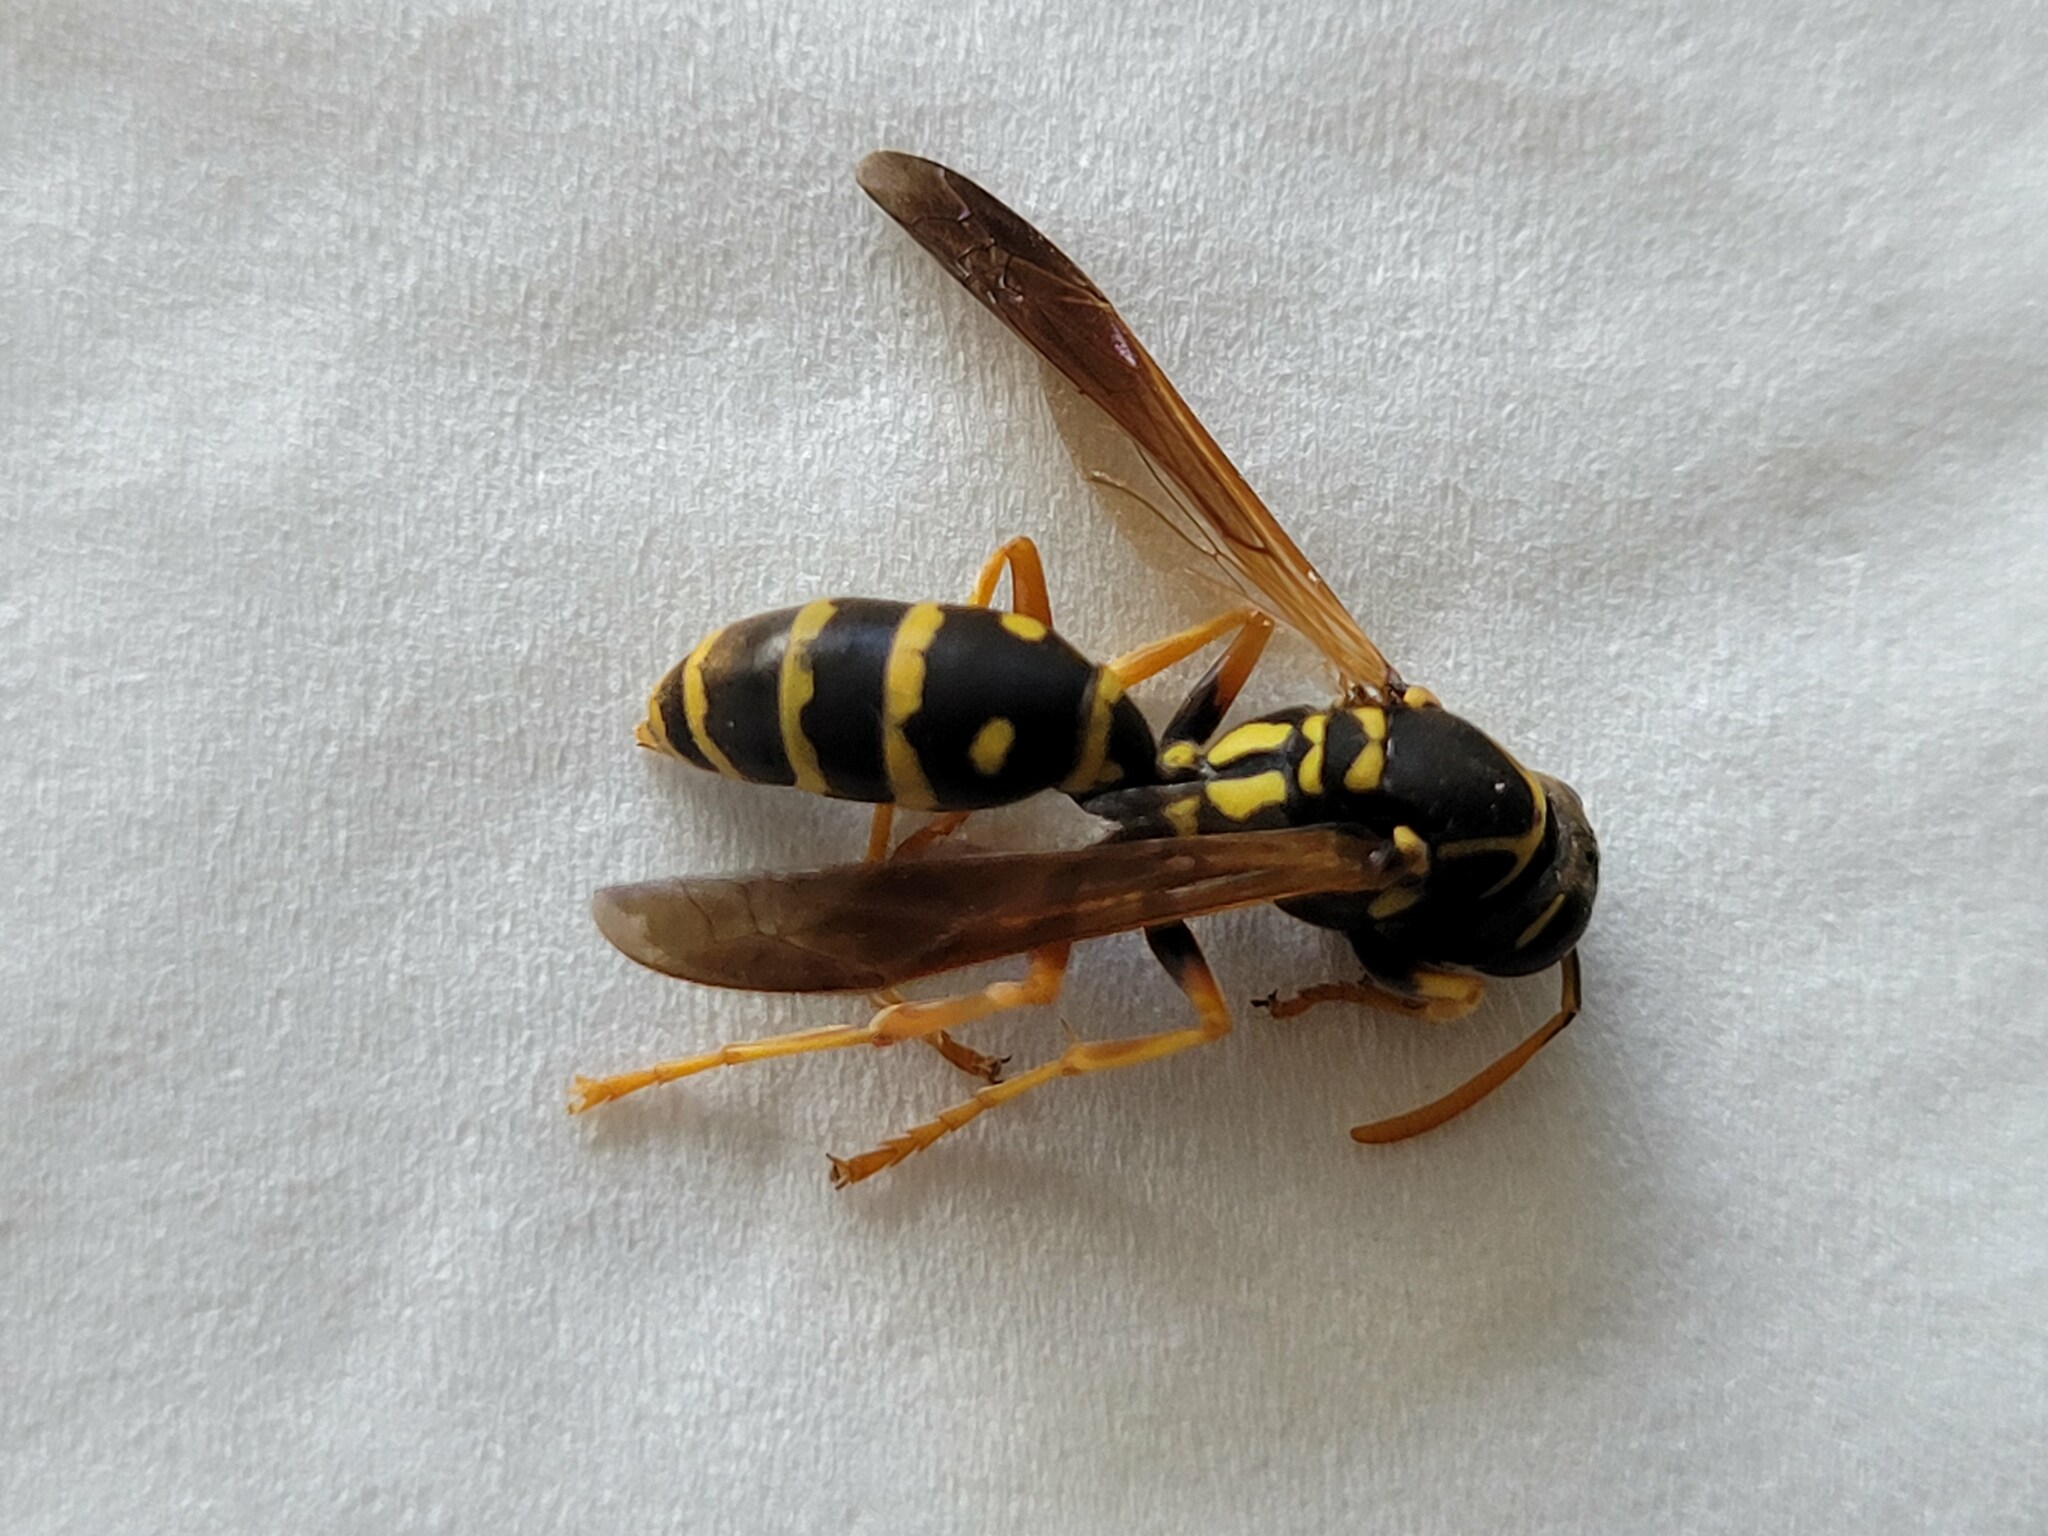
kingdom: Animalia
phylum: Arthropoda
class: Insecta
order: Hymenoptera
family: Eumenidae
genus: Polistes
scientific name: Polistes chinensis
